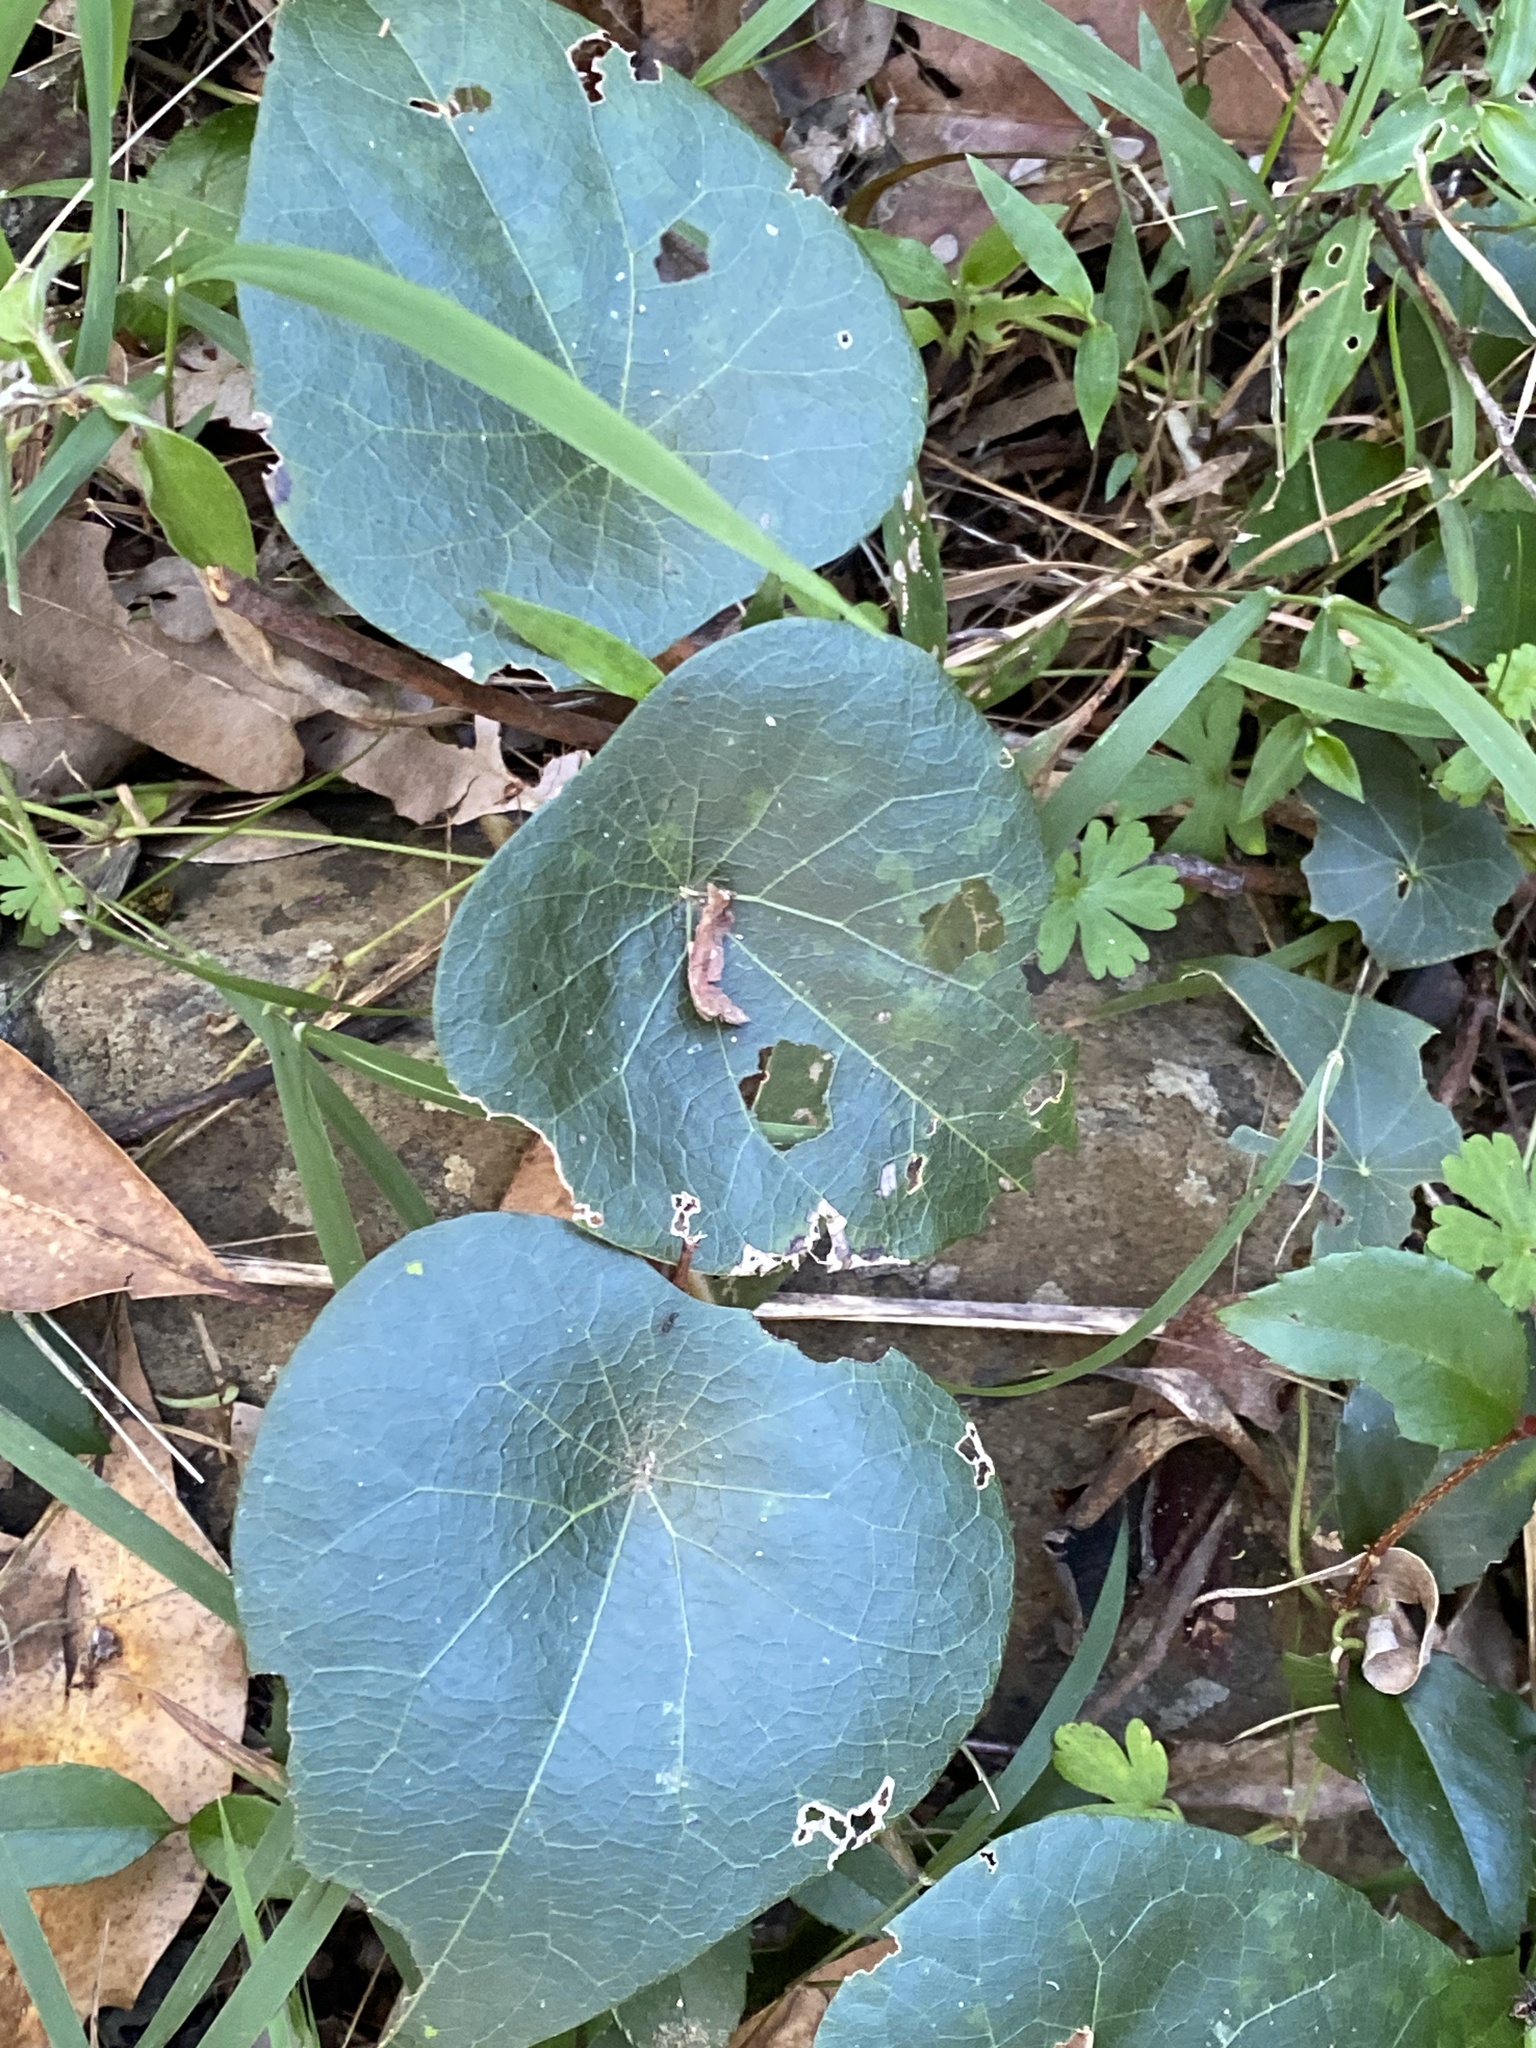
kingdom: Plantae
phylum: Tracheophyta
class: Magnoliopsida
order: Ranunculales
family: Menispermaceae
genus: Stephania
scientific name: Stephania japonica
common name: Snake vine
